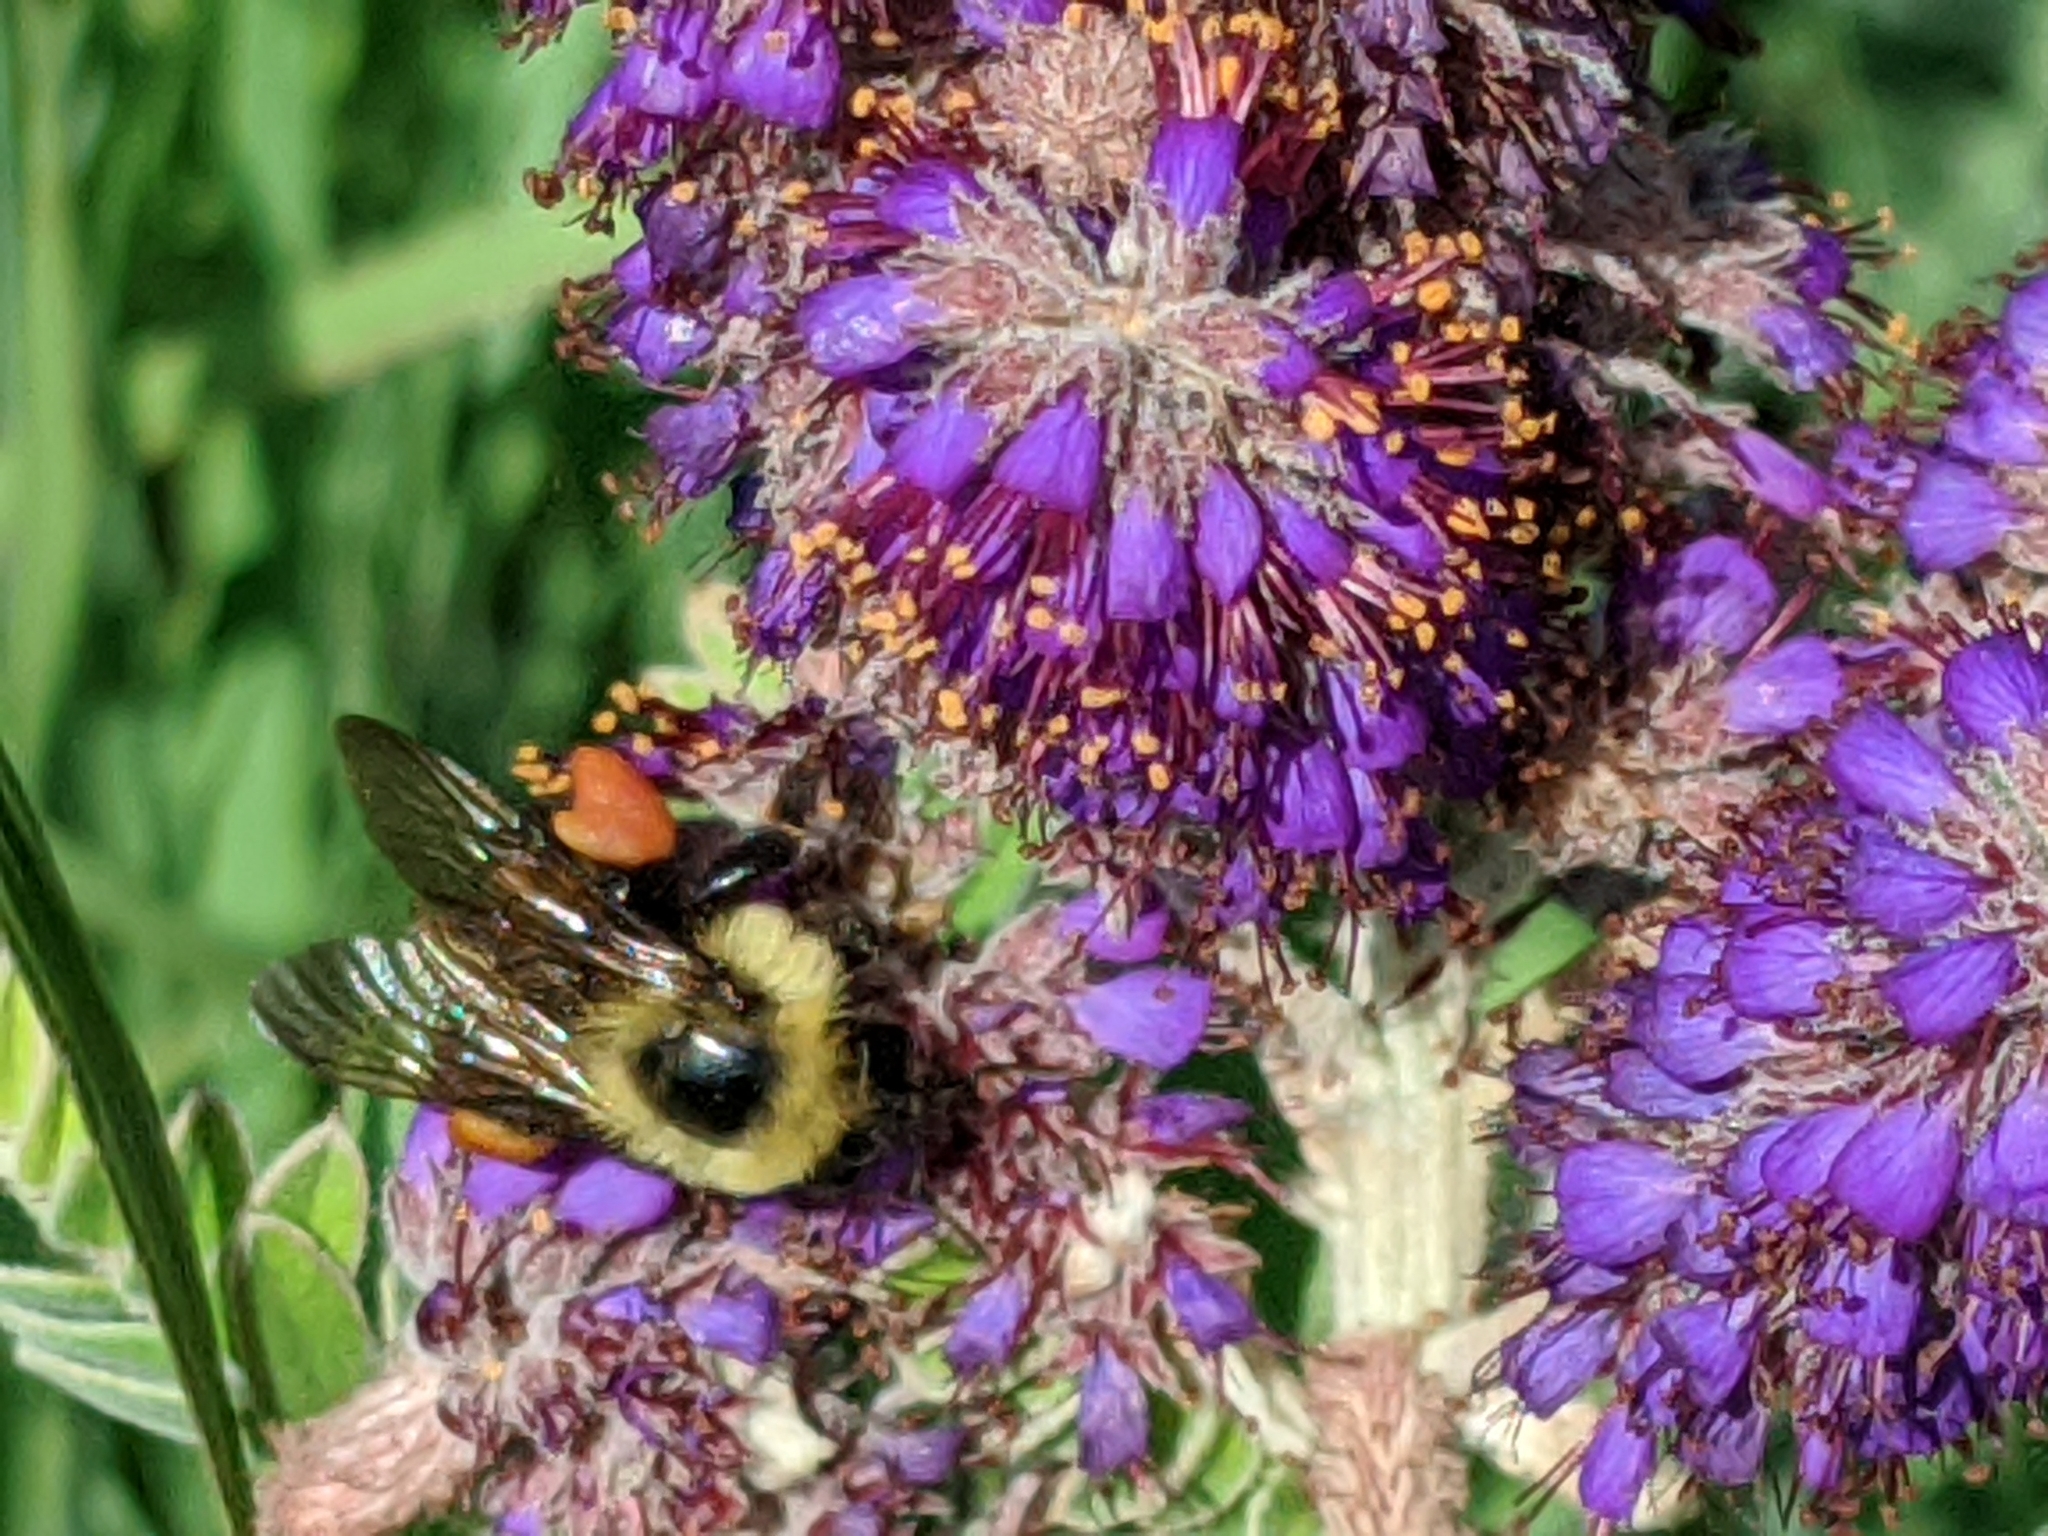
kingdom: Animalia
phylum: Arthropoda
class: Insecta
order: Hymenoptera
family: Apidae
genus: Bombus
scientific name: Bombus bimaculatus
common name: Two-spotted bumble bee
